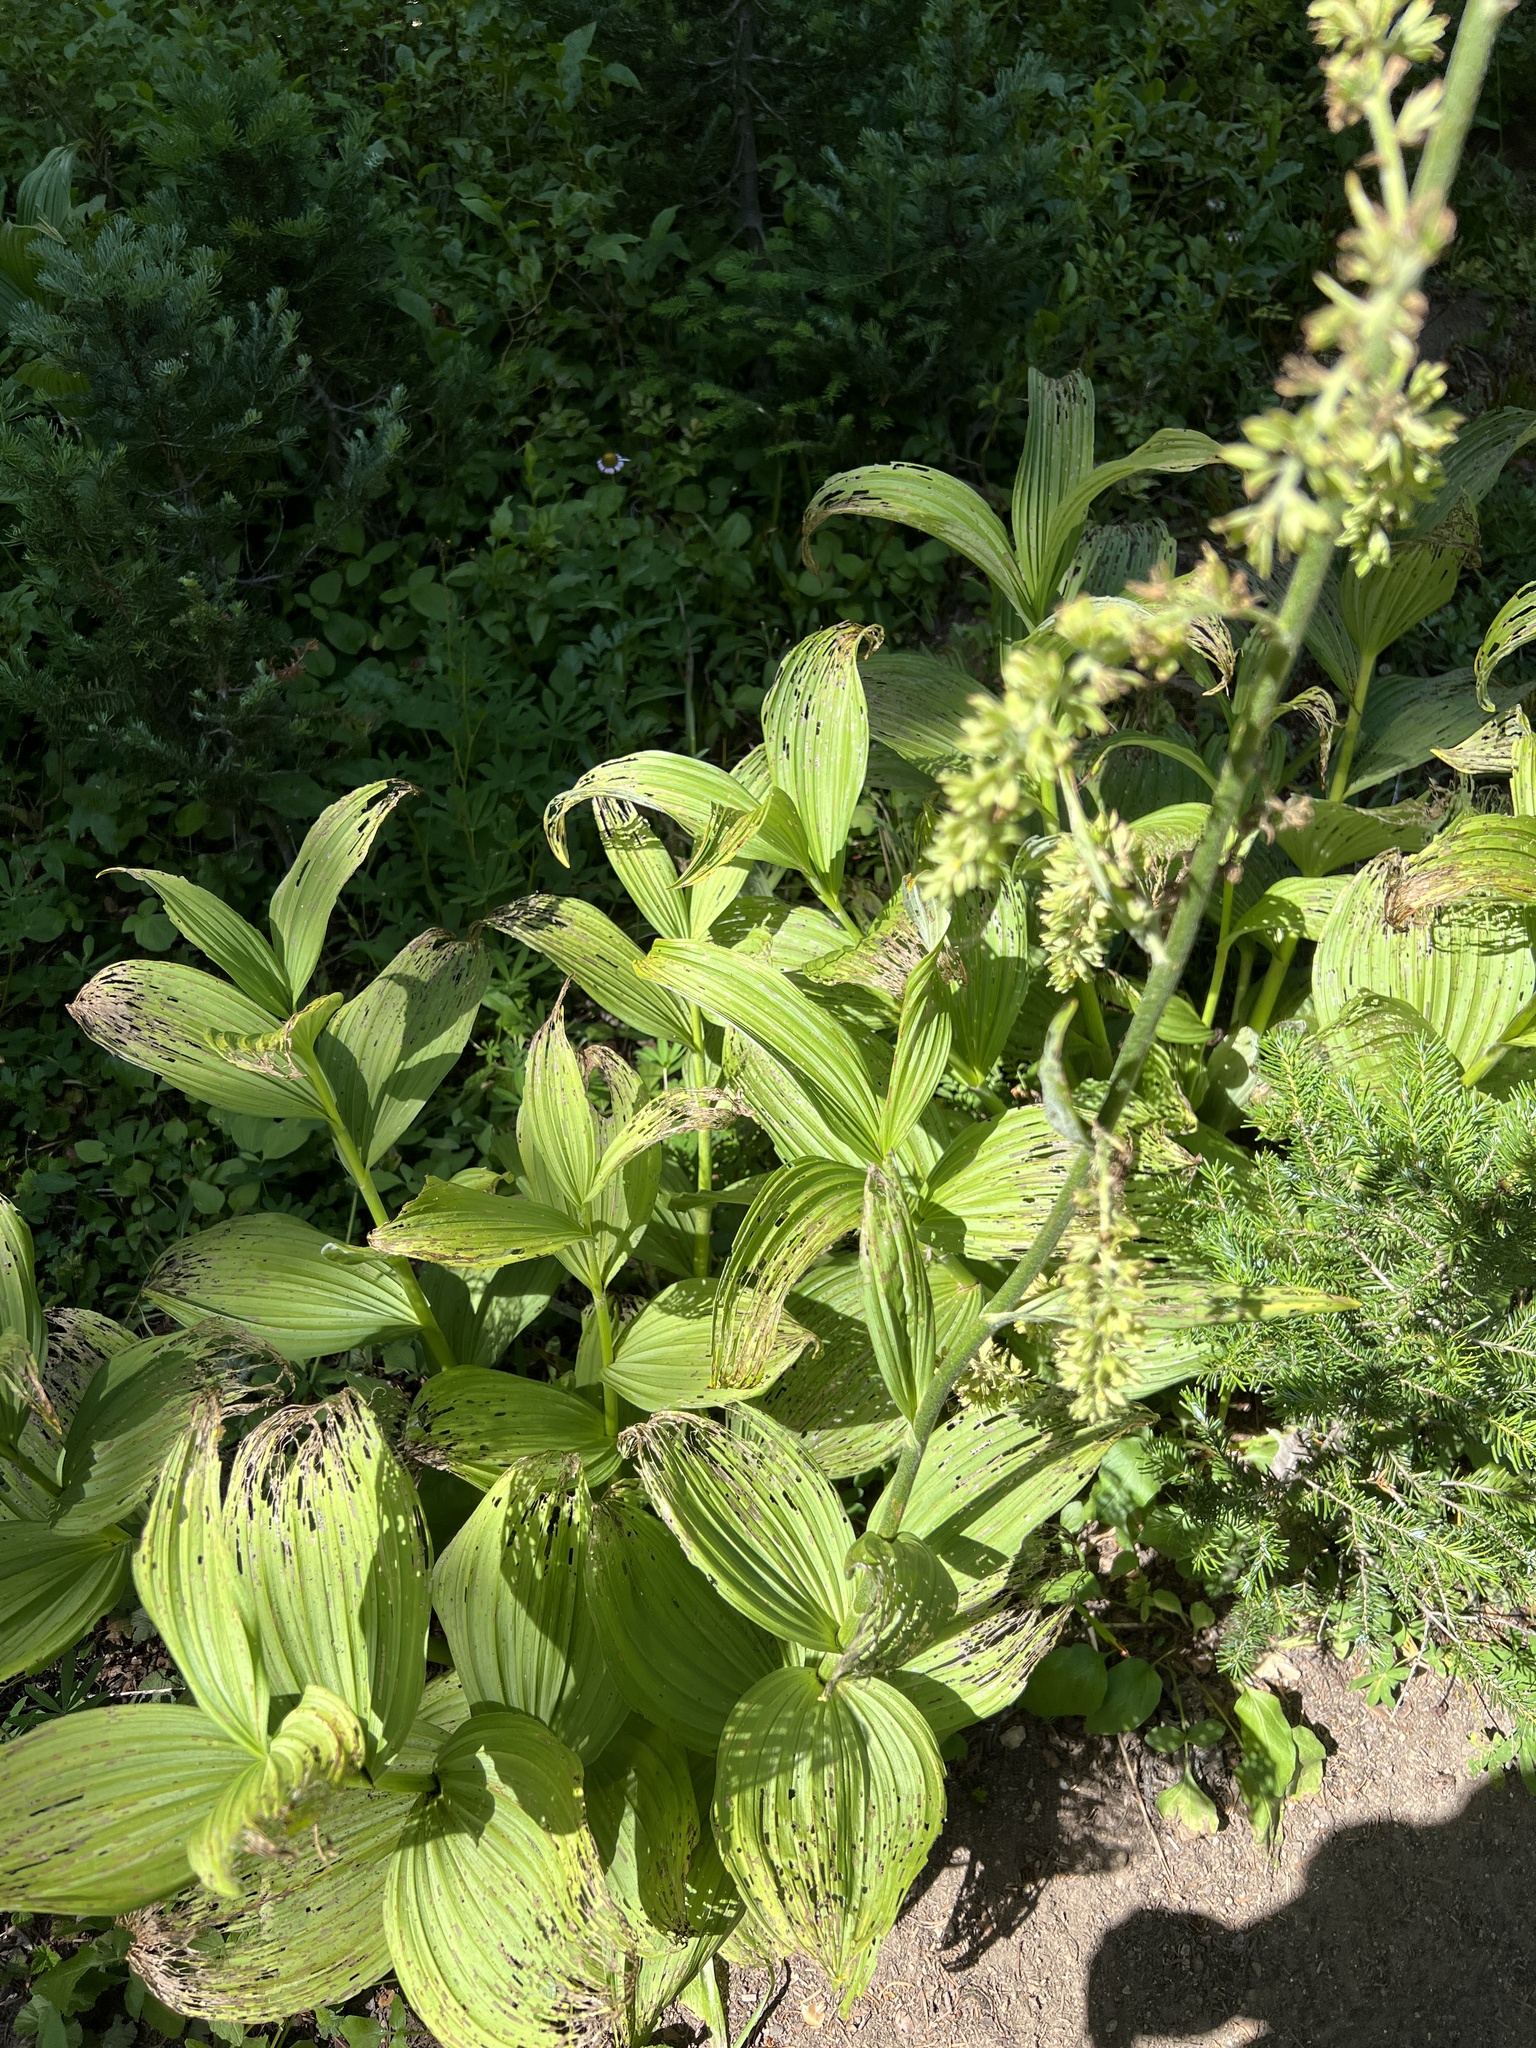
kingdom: Plantae
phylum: Tracheophyta
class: Liliopsida
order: Liliales
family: Melanthiaceae
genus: Veratrum
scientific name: Veratrum viride
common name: American false hellebore
